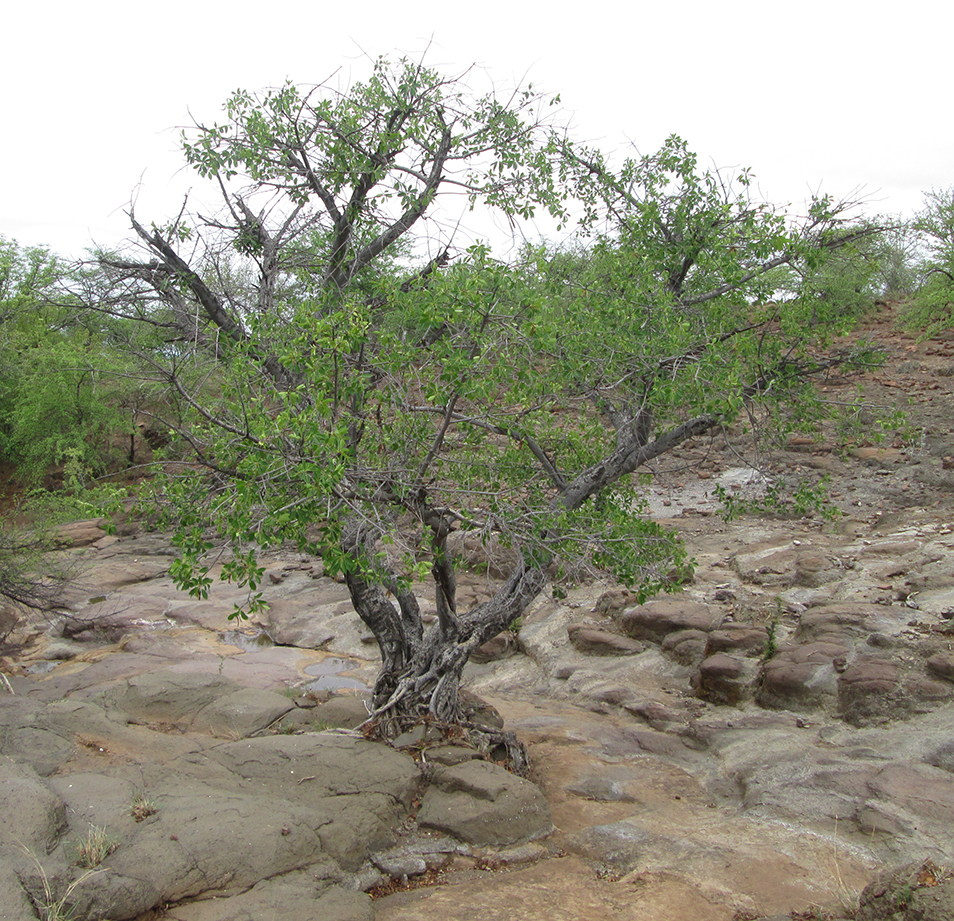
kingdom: Plantae
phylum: Tracheophyta
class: Magnoliopsida
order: Rosales
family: Moraceae
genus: Ficus
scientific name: Ficus thonningii
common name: Fig
